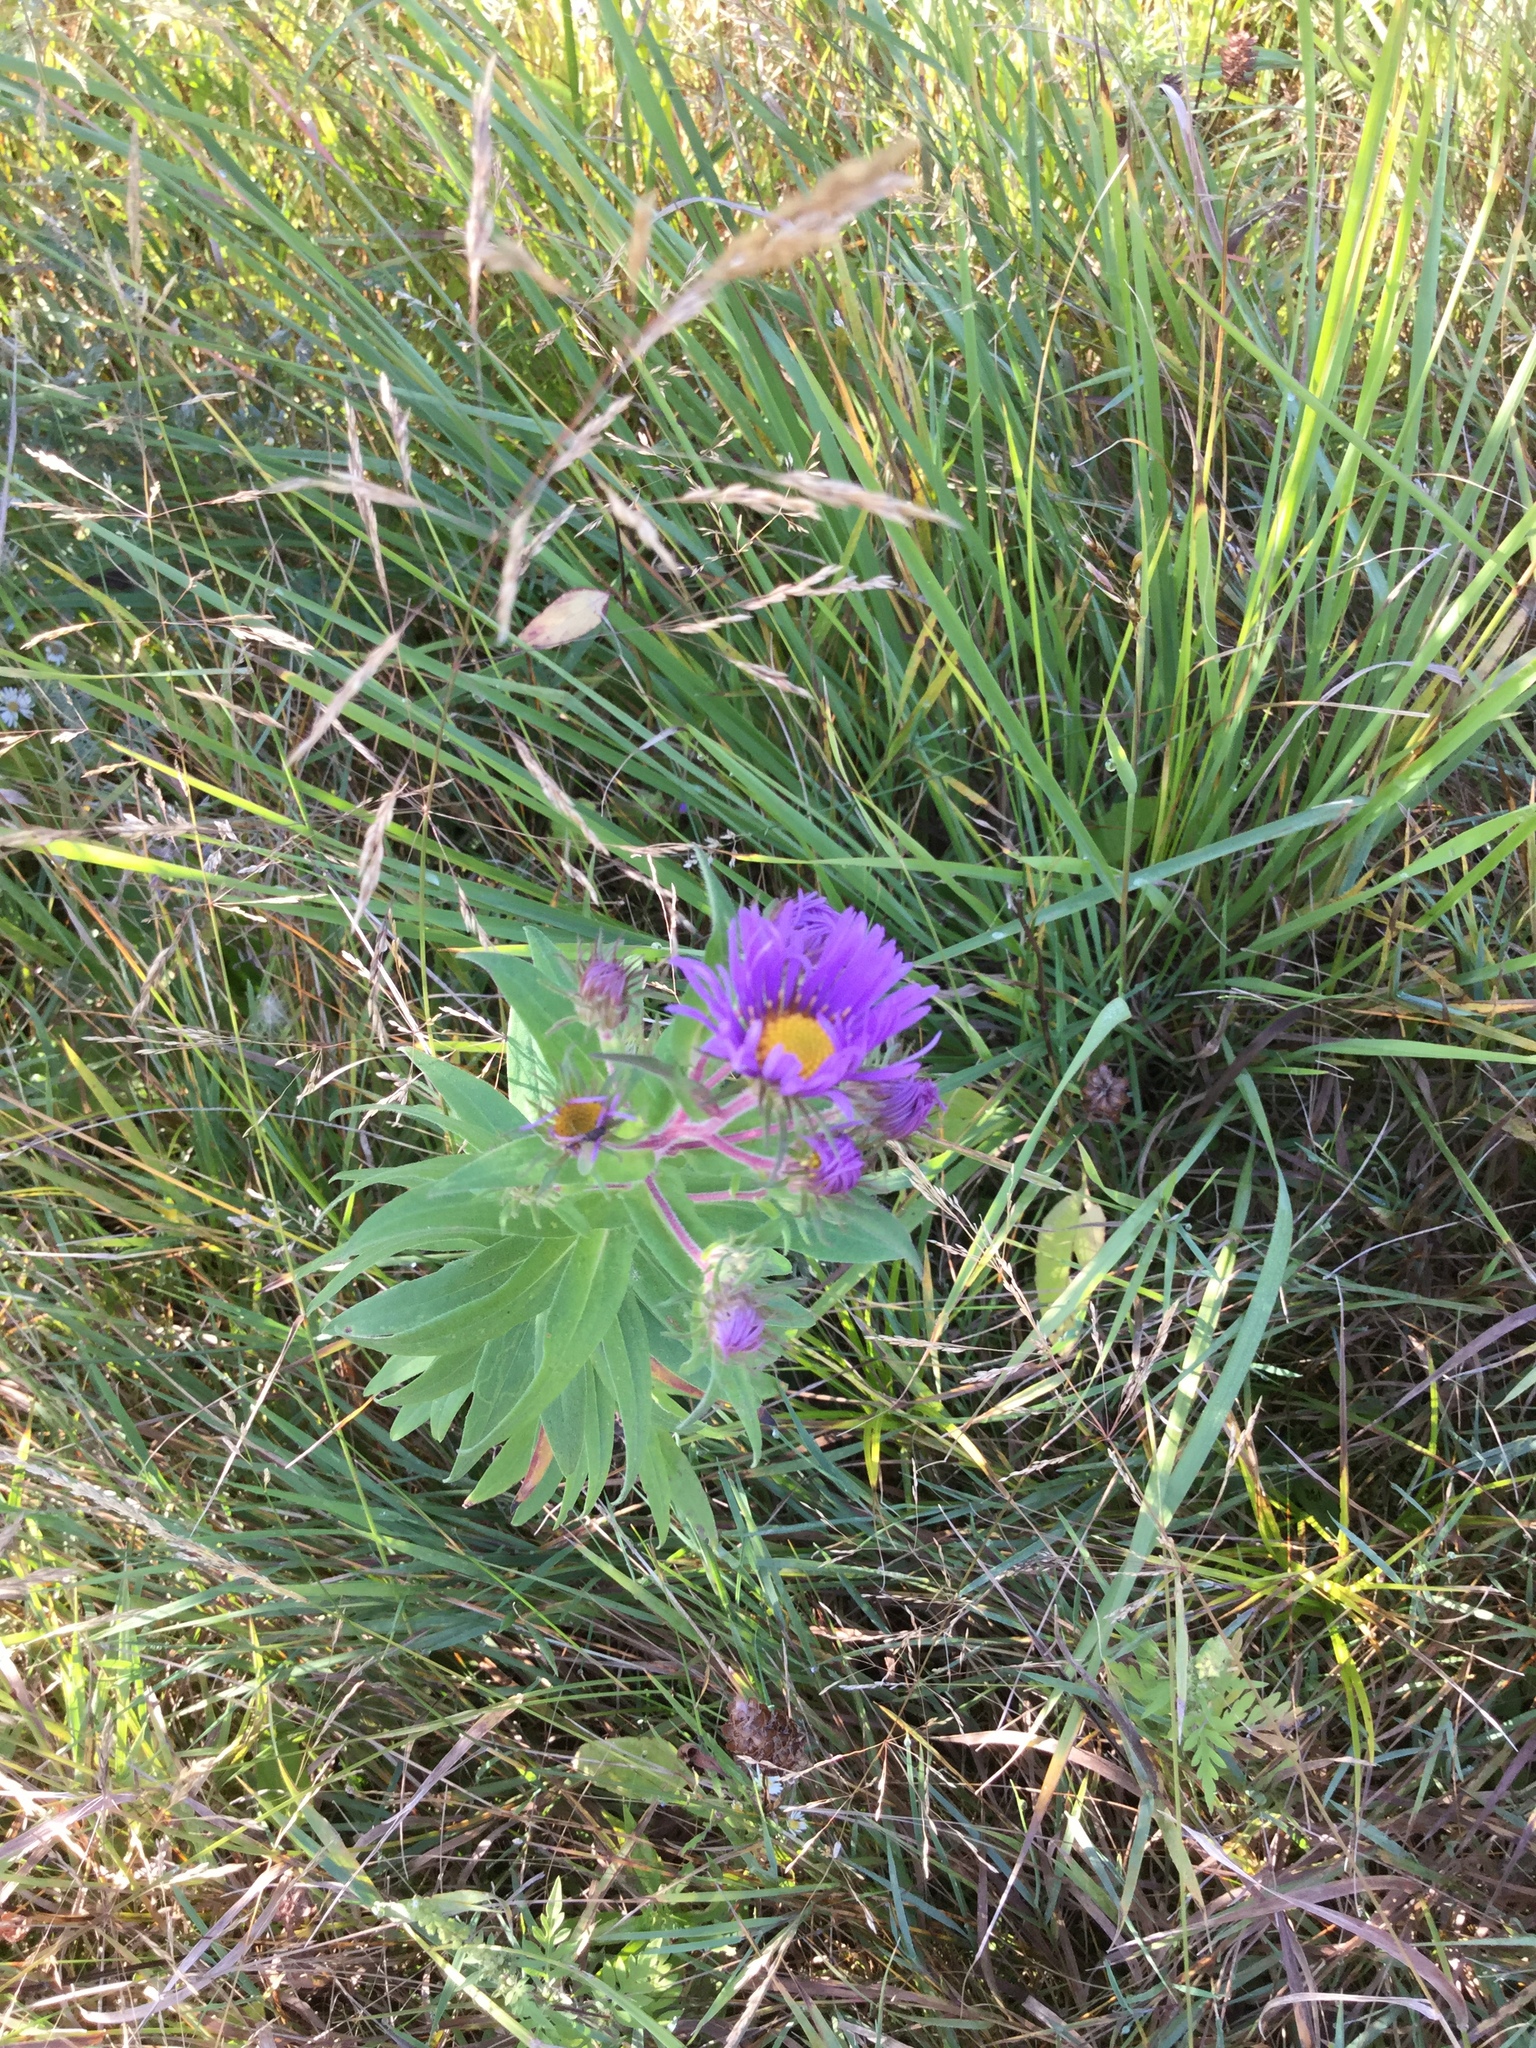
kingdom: Plantae
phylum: Tracheophyta
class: Magnoliopsida
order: Asterales
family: Asteraceae
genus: Symphyotrichum
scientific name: Symphyotrichum novae-angliae
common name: Michaelmas daisy
